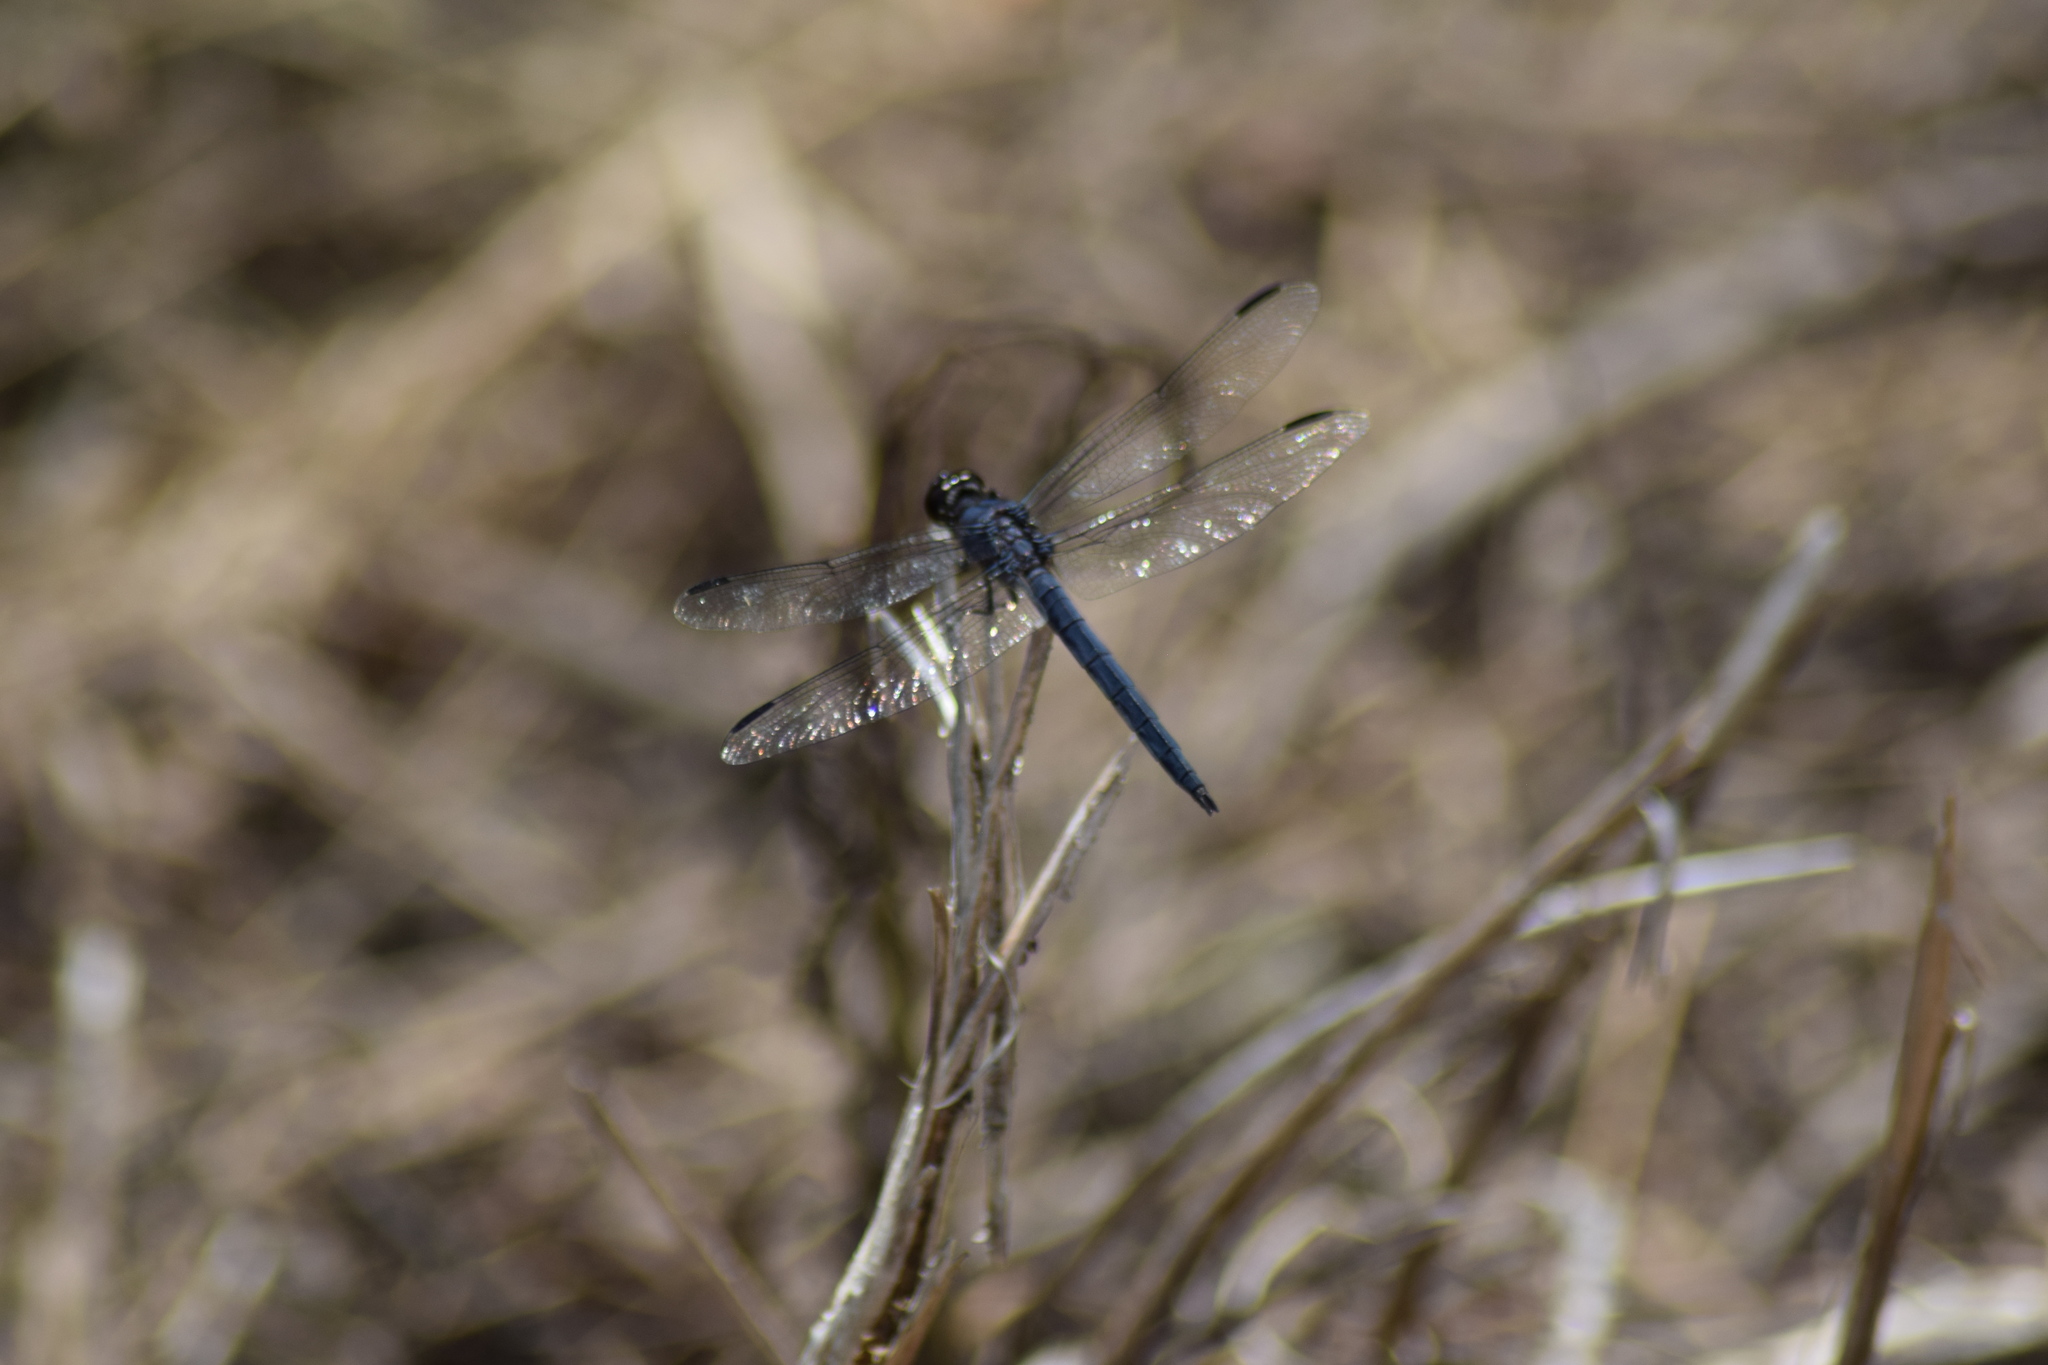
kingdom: Animalia
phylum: Arthropoda
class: Insecta
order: Odonata
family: Libellulidae
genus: Libellula
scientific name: Libellula incesta
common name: Slaty skimmer
